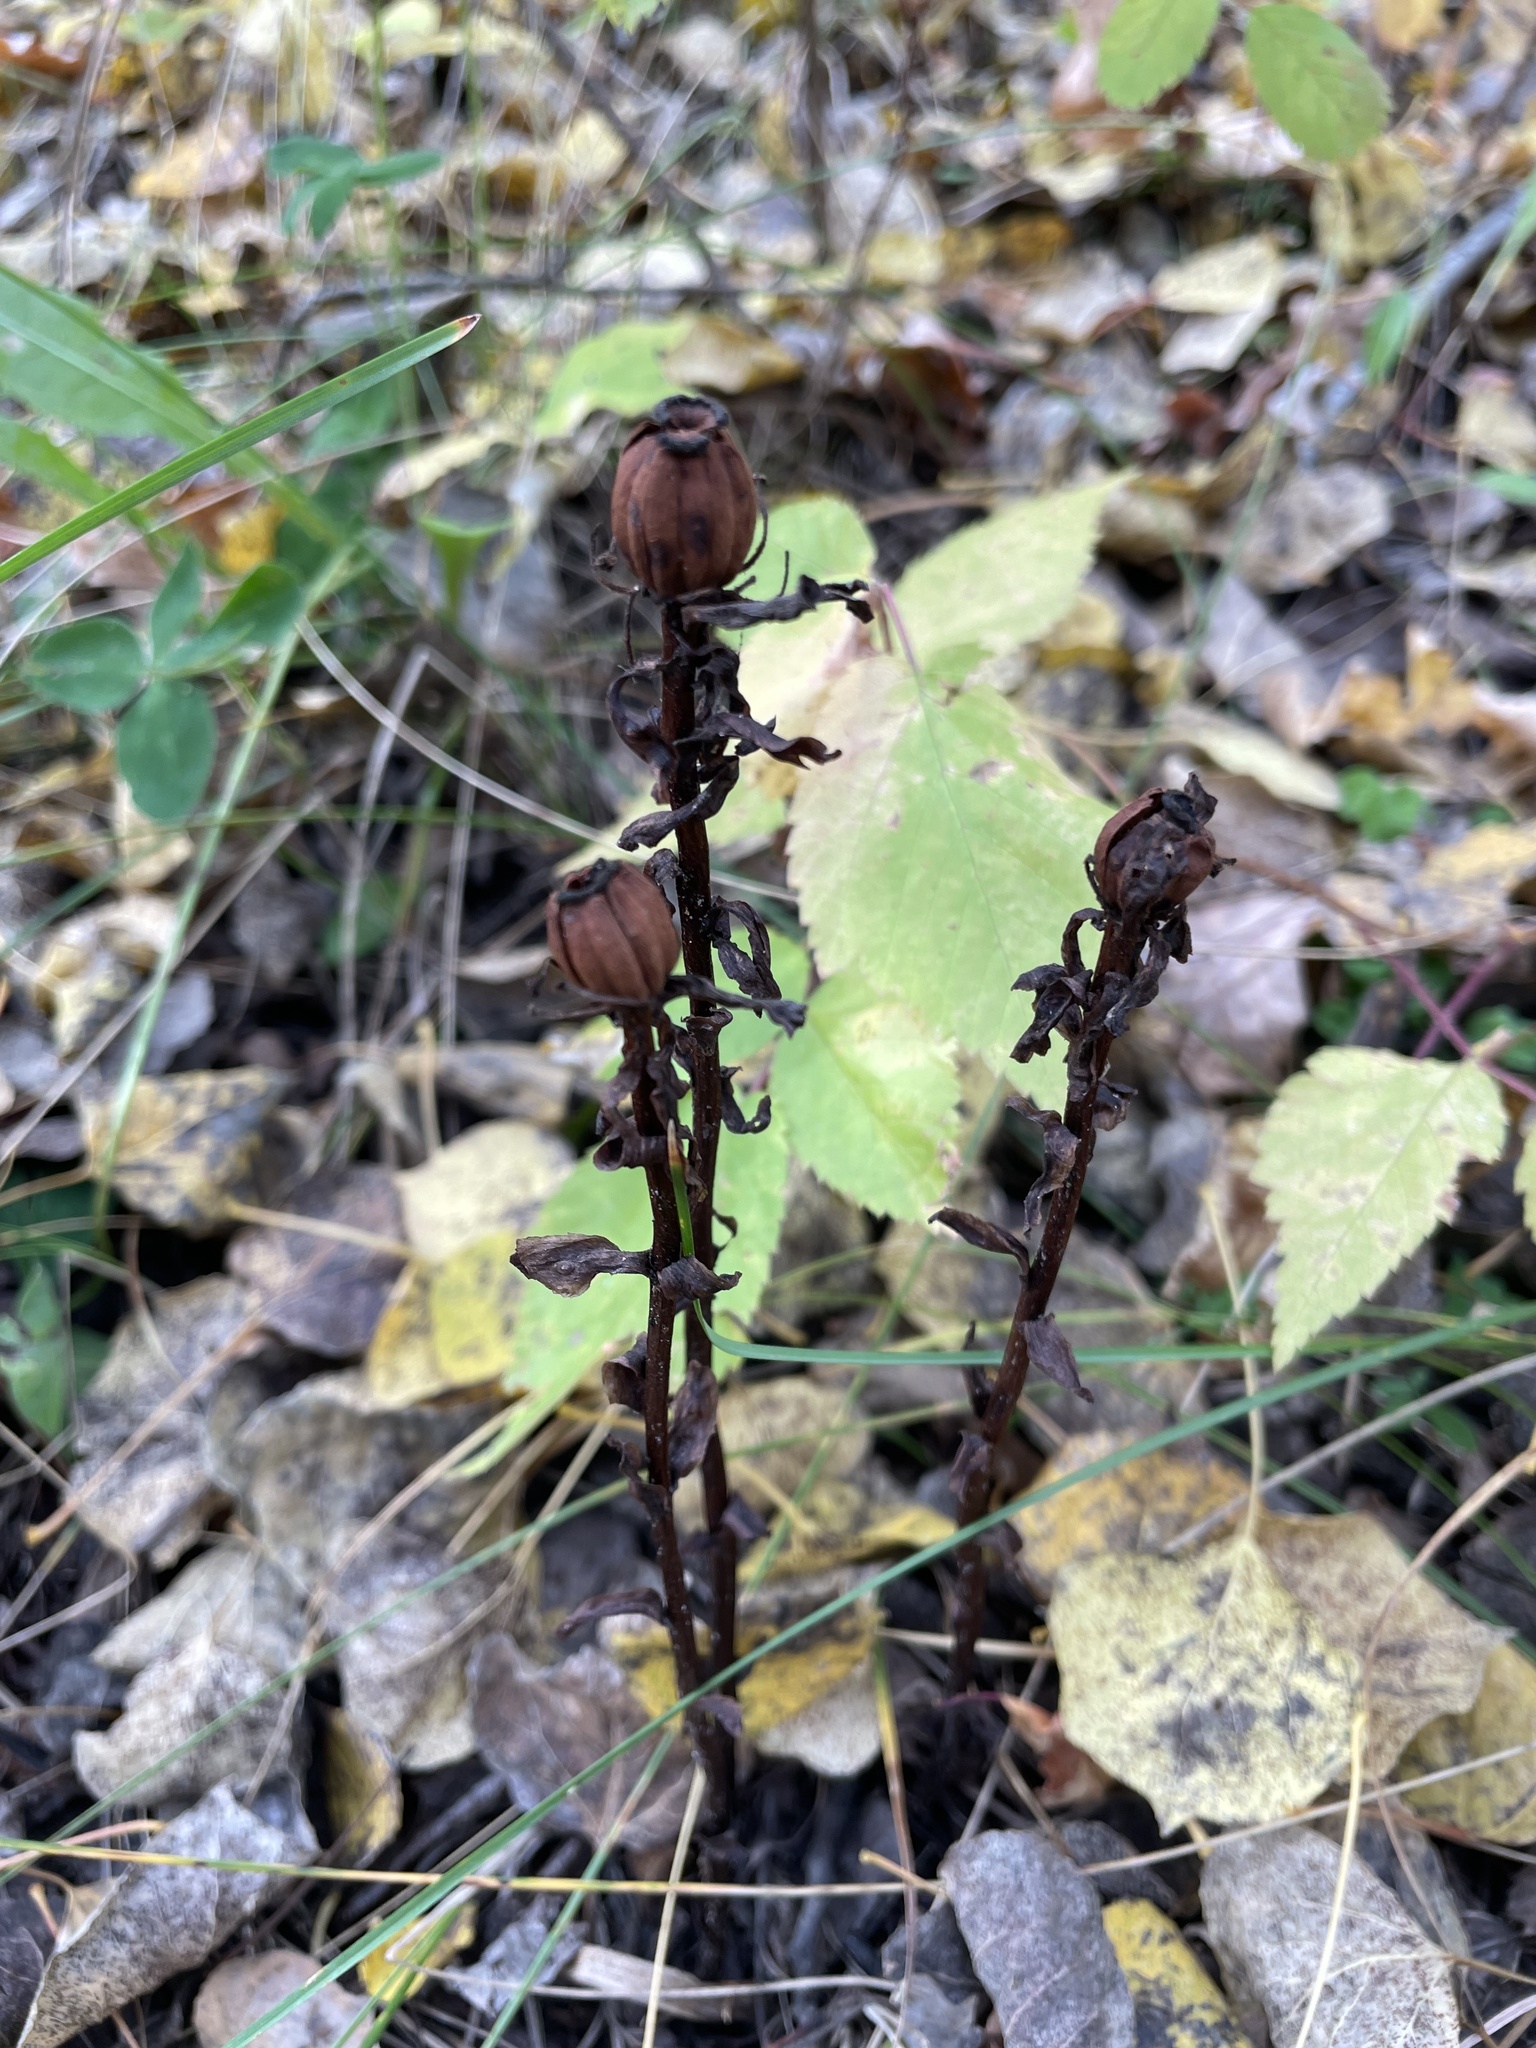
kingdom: Plantae
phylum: Tracheophyta
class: Magnoliopsida
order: Ericales
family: Ericaceae
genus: Monotropa
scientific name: Monotropa uniflora
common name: Convulsion root
